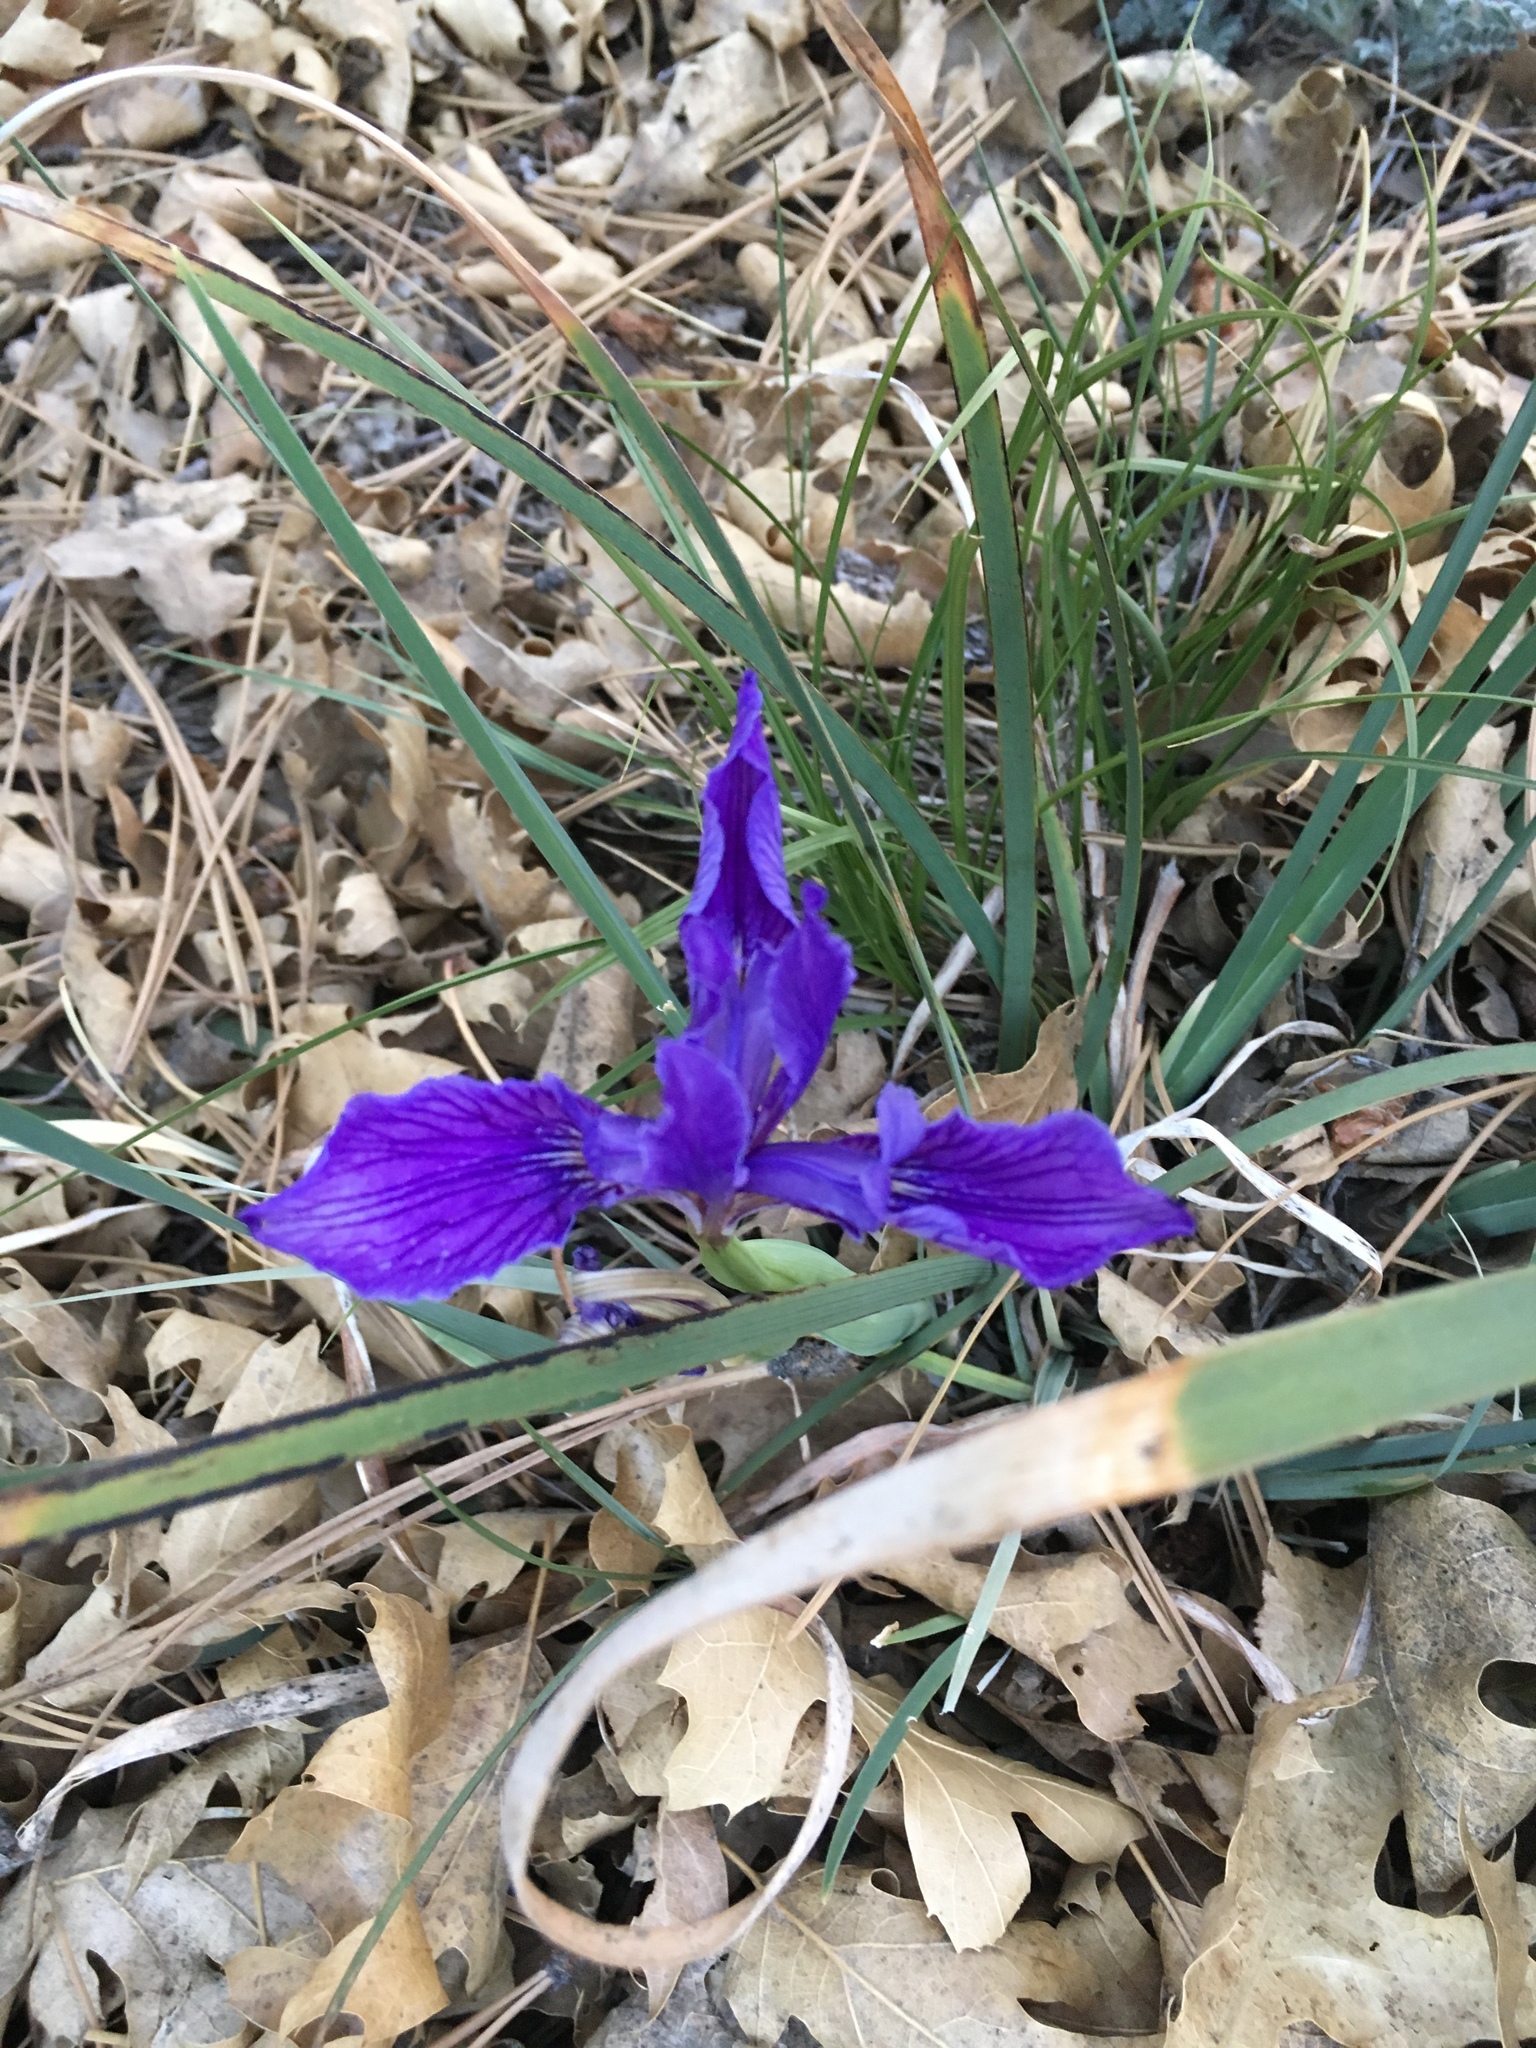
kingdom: Plantae
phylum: Tracheophyta
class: Liliopsida
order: Asparagales
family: Iridaceae
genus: Iris
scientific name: Iris hartwegii
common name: Sierra iris
